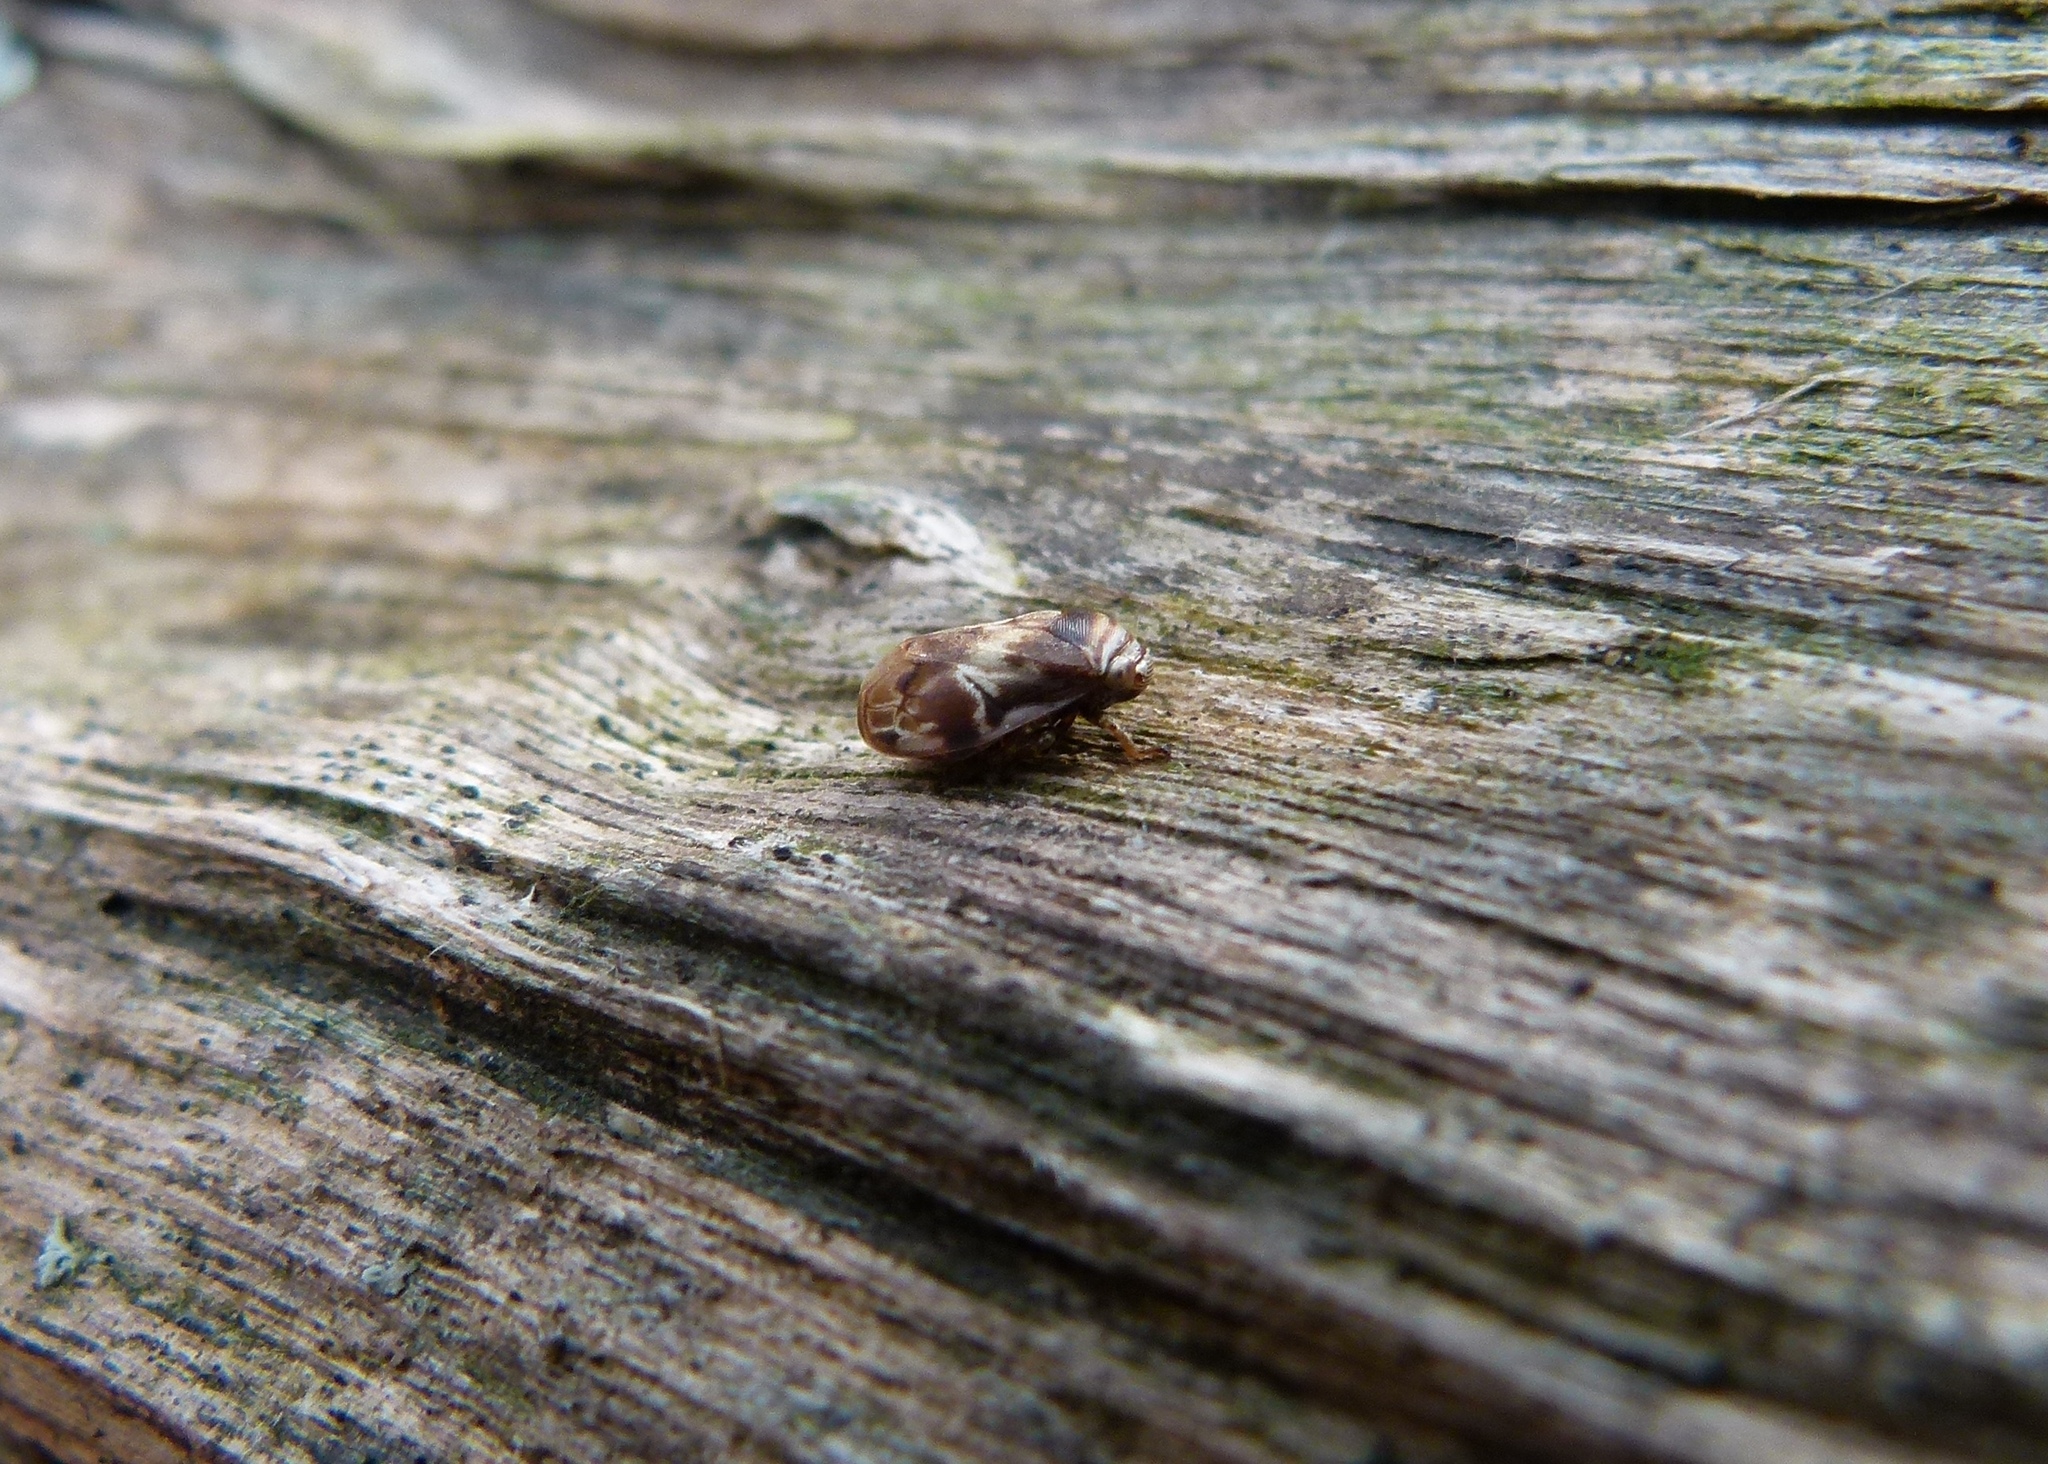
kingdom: Animalia
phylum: Arthropoda
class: Insecta
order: Hemiptera
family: Clastopteridae
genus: Clastoptera
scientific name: Clastoptera obtusa
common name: Alder spittlebug
